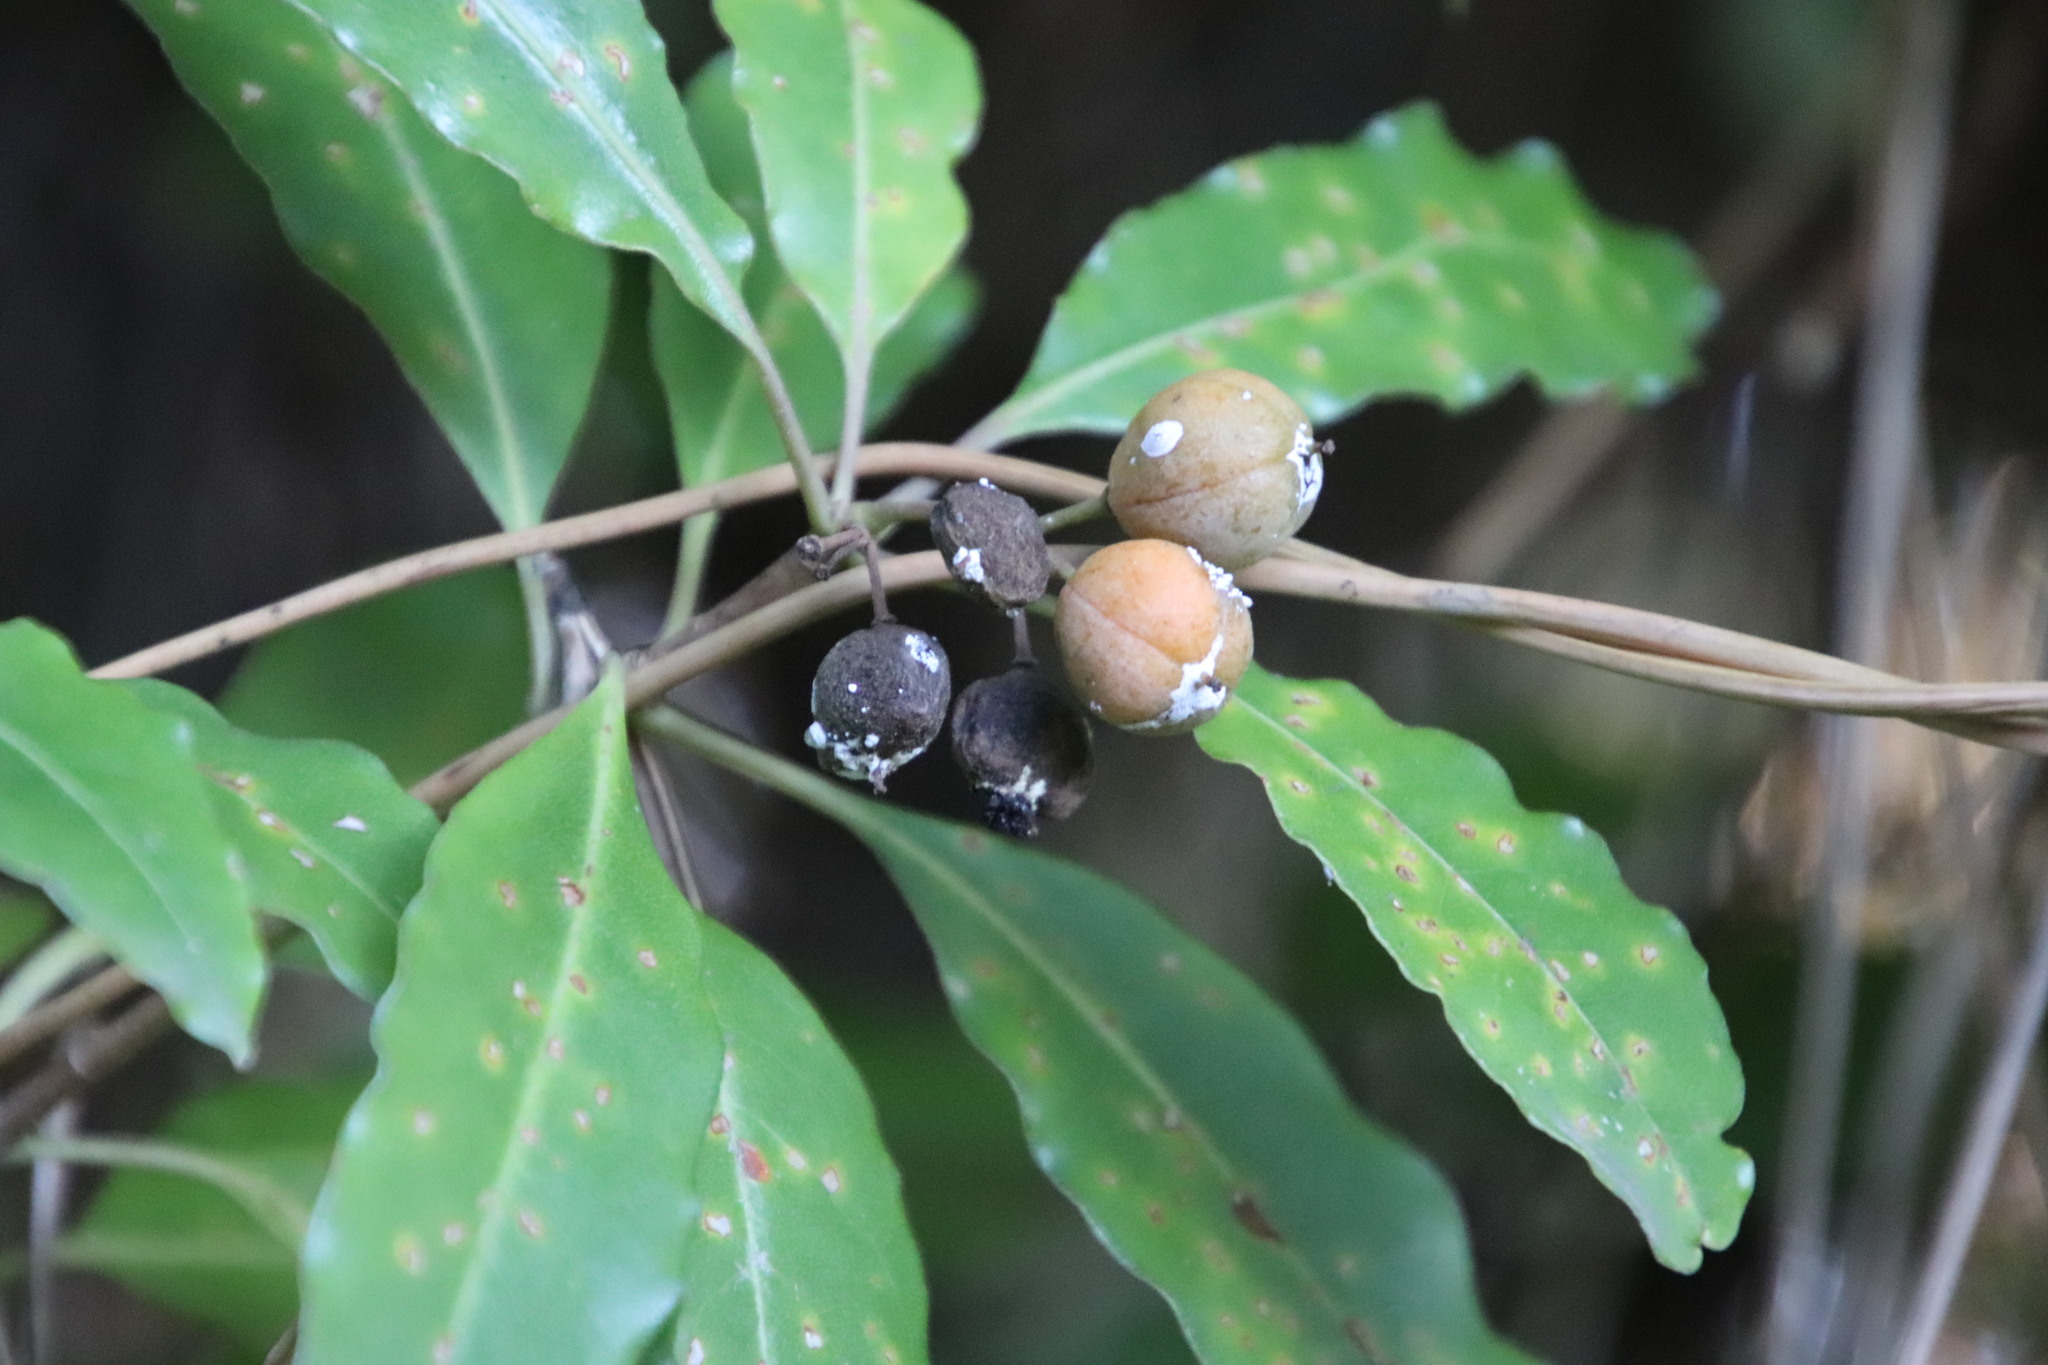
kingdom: Plantae
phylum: Tracheophyta
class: Magnoliopsida
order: Apiales
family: Pittosporaceae
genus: Pittosporum
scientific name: Pittosporum undulatum
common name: Australian cheesewood
